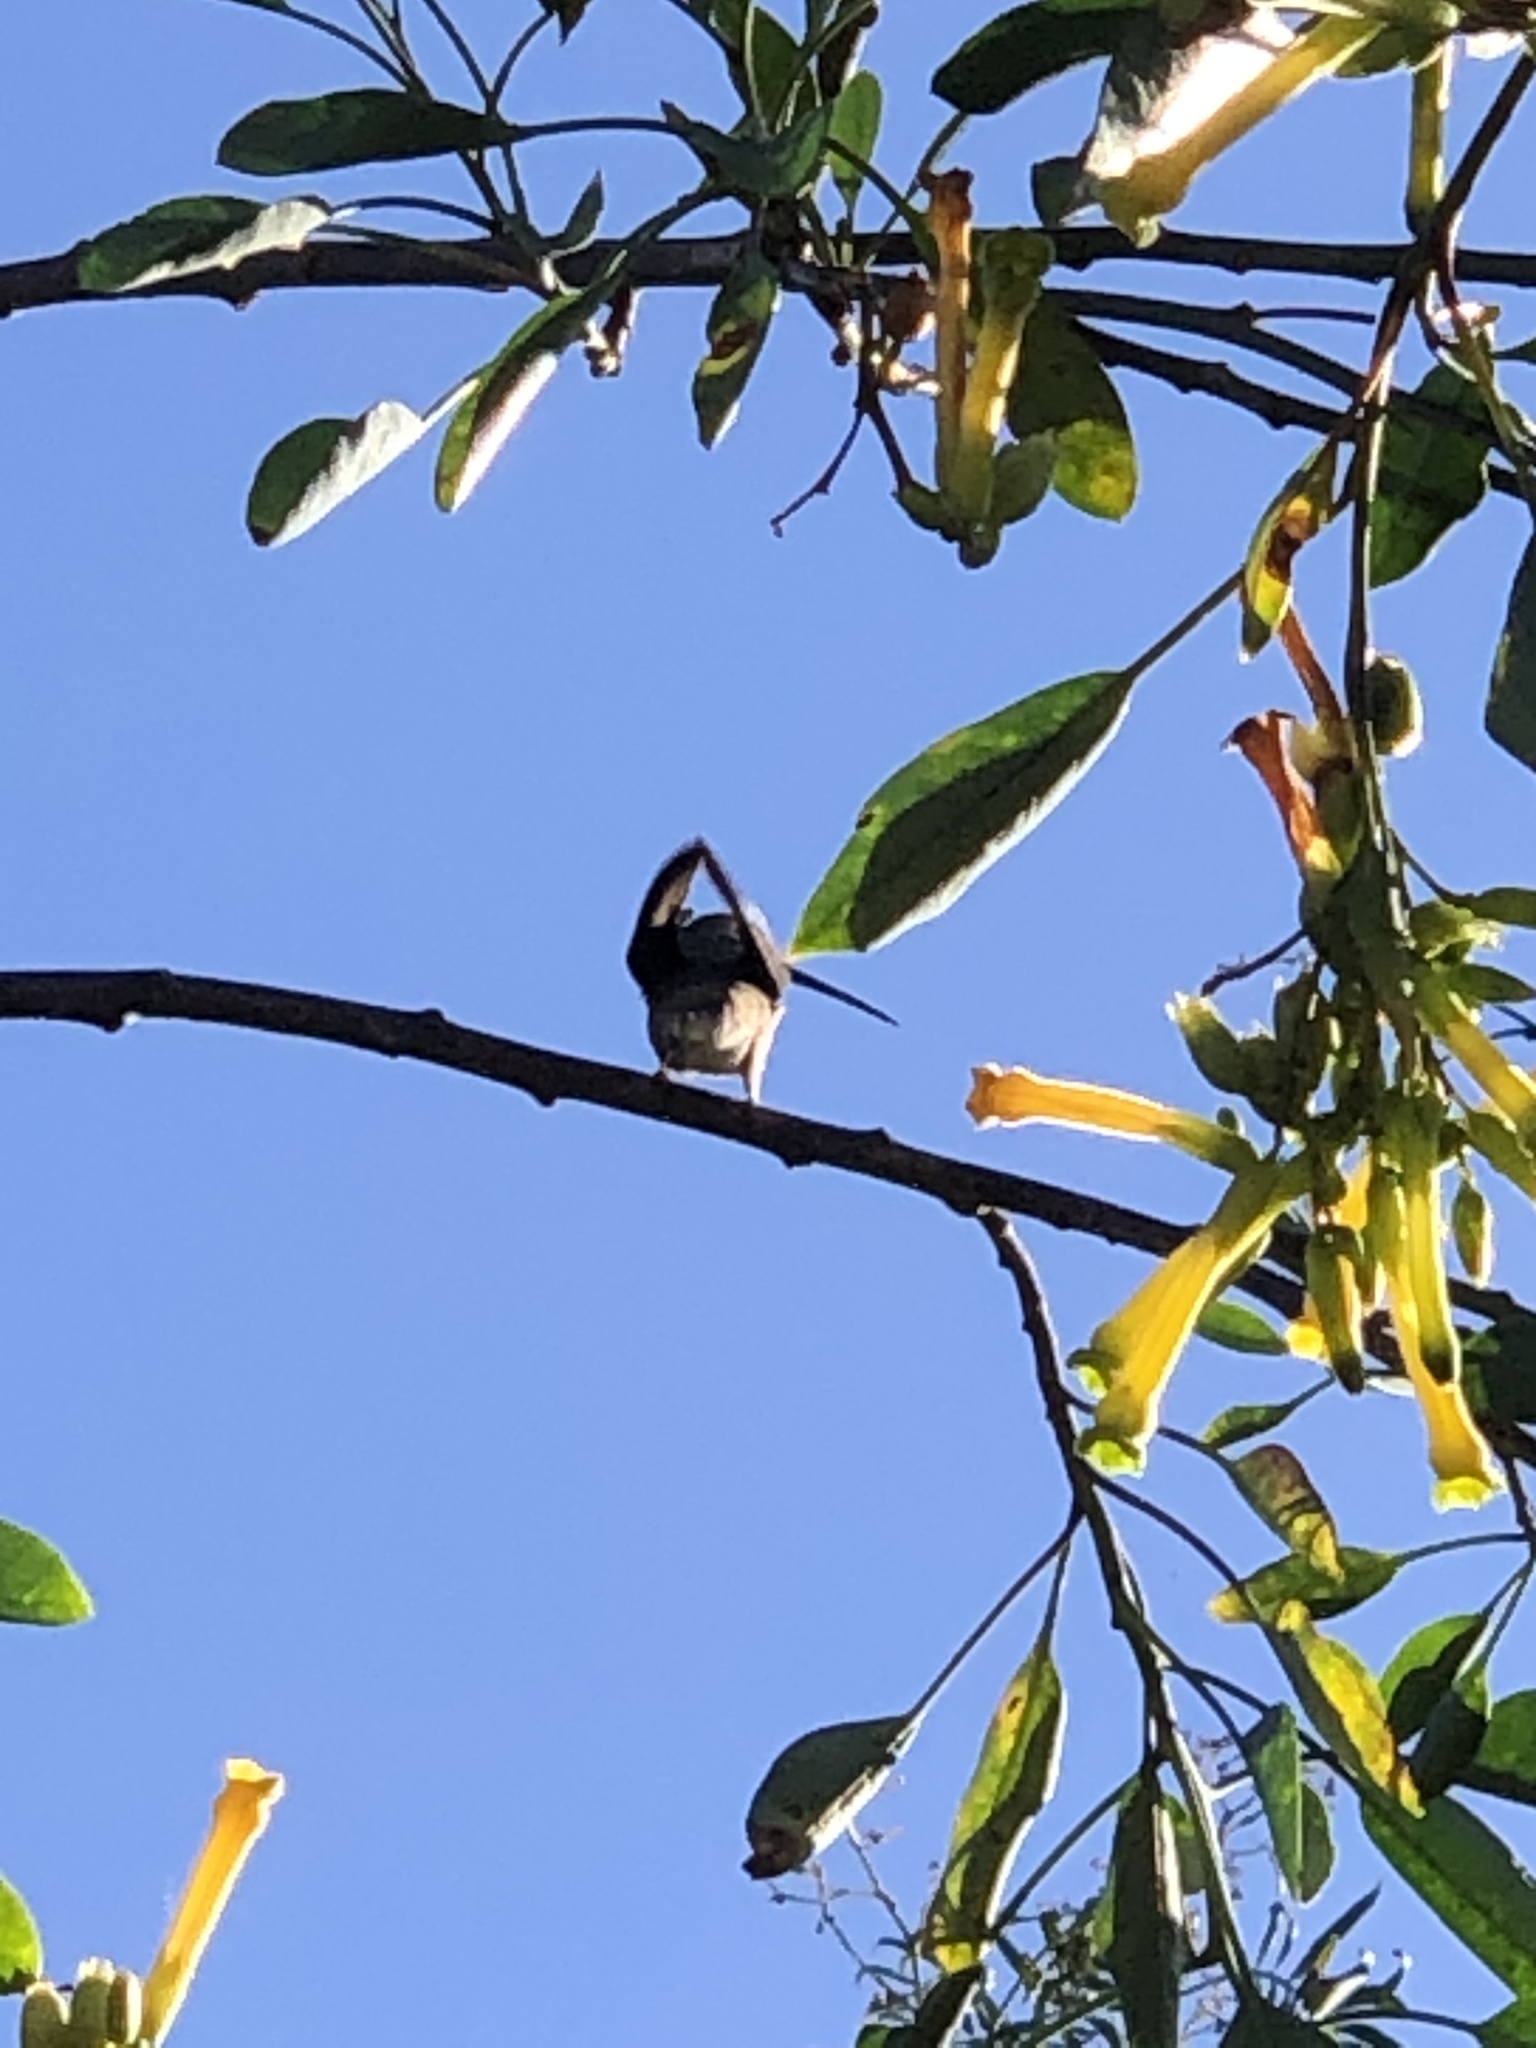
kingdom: Animalia
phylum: Chordata
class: Aves
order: Apodiformes
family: Trochilidae
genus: Rhodopis
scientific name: Rhodopis vesper
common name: Oasis hummingbird
